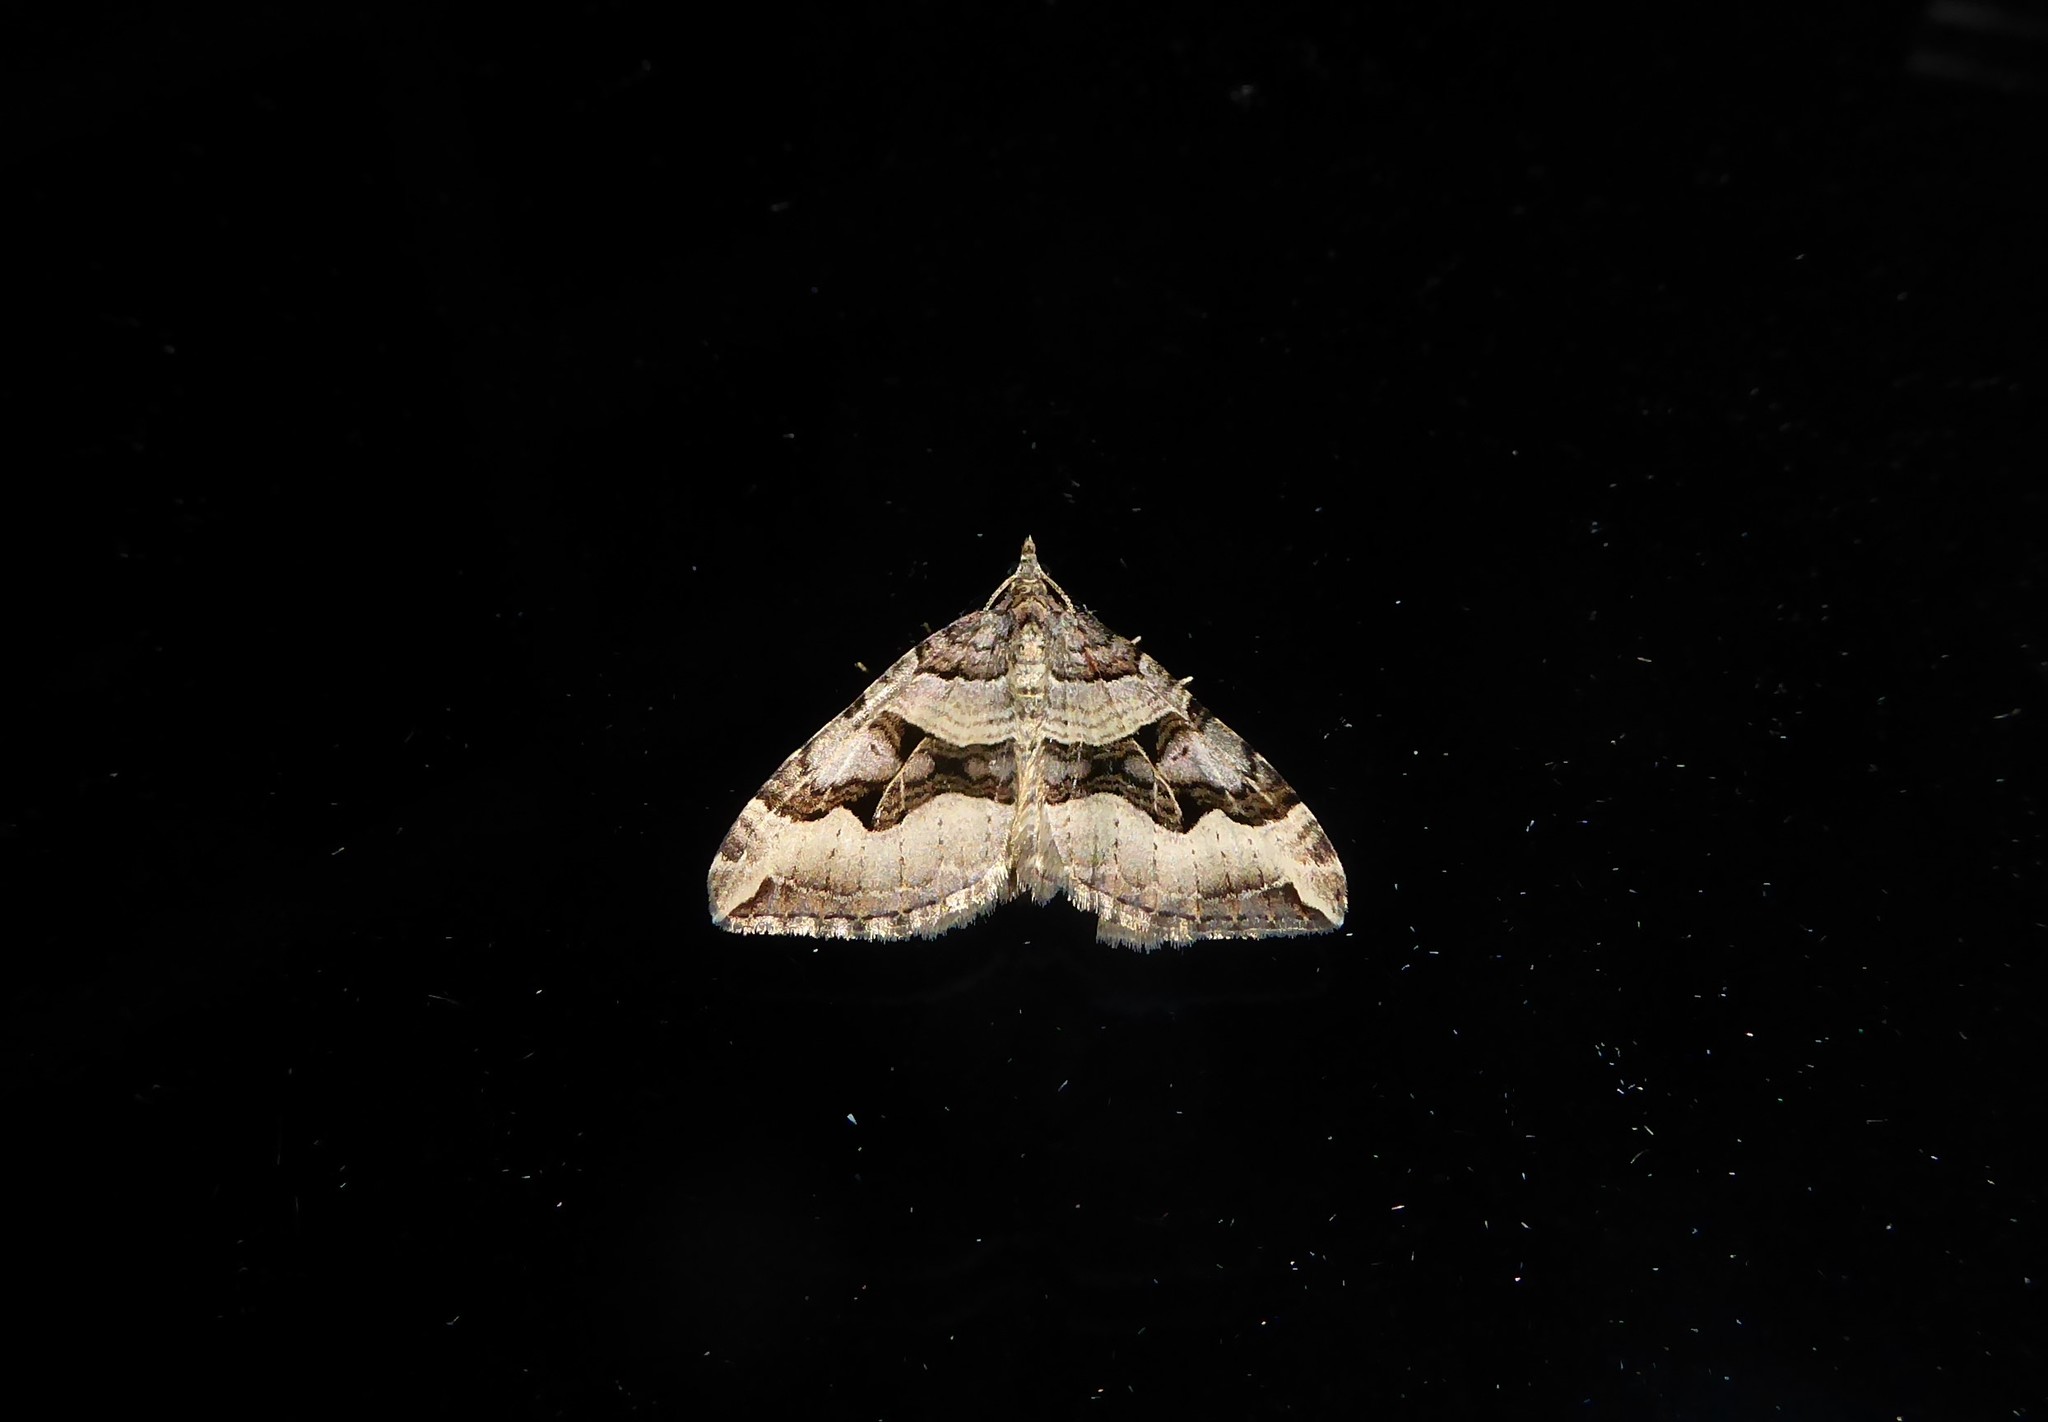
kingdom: Animalia
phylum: Arthropoda
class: Insecta
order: Lepidoptera
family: Geometridae
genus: Xanthorhoe
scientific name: Xanthorhoe semifissata
